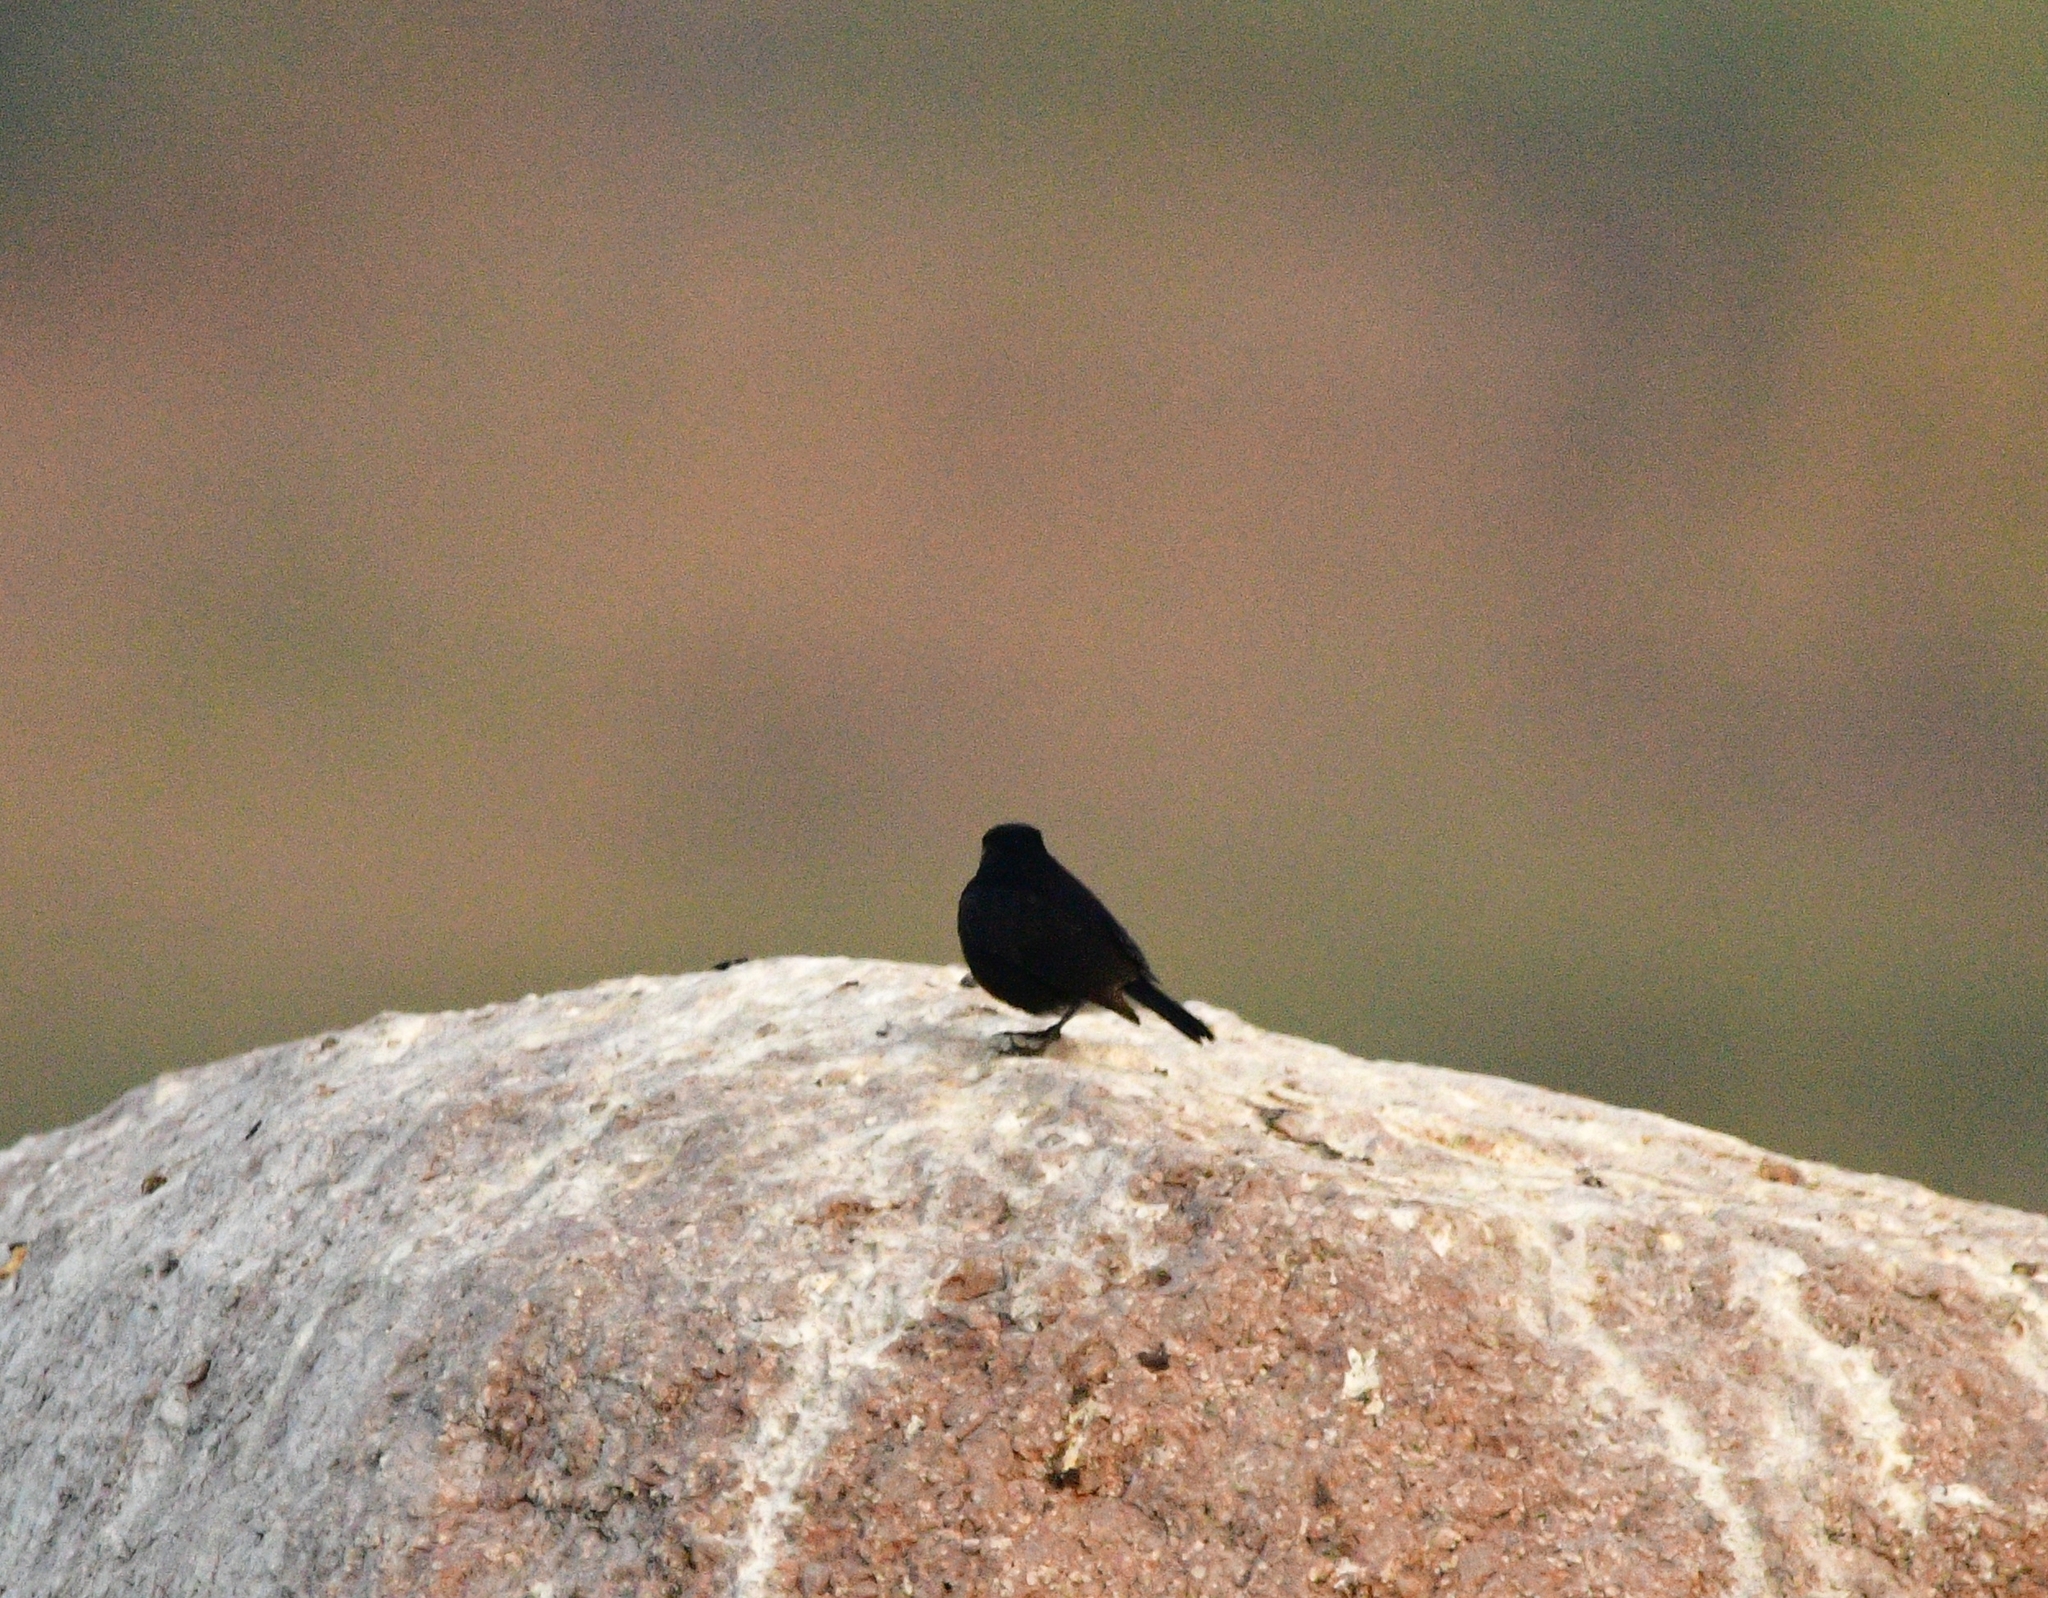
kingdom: Animalia
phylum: Chordata
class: Aves
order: Passeriformes
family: Muscicapidae
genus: Saxicola
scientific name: Saxicola caprata
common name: Pied bush chat
